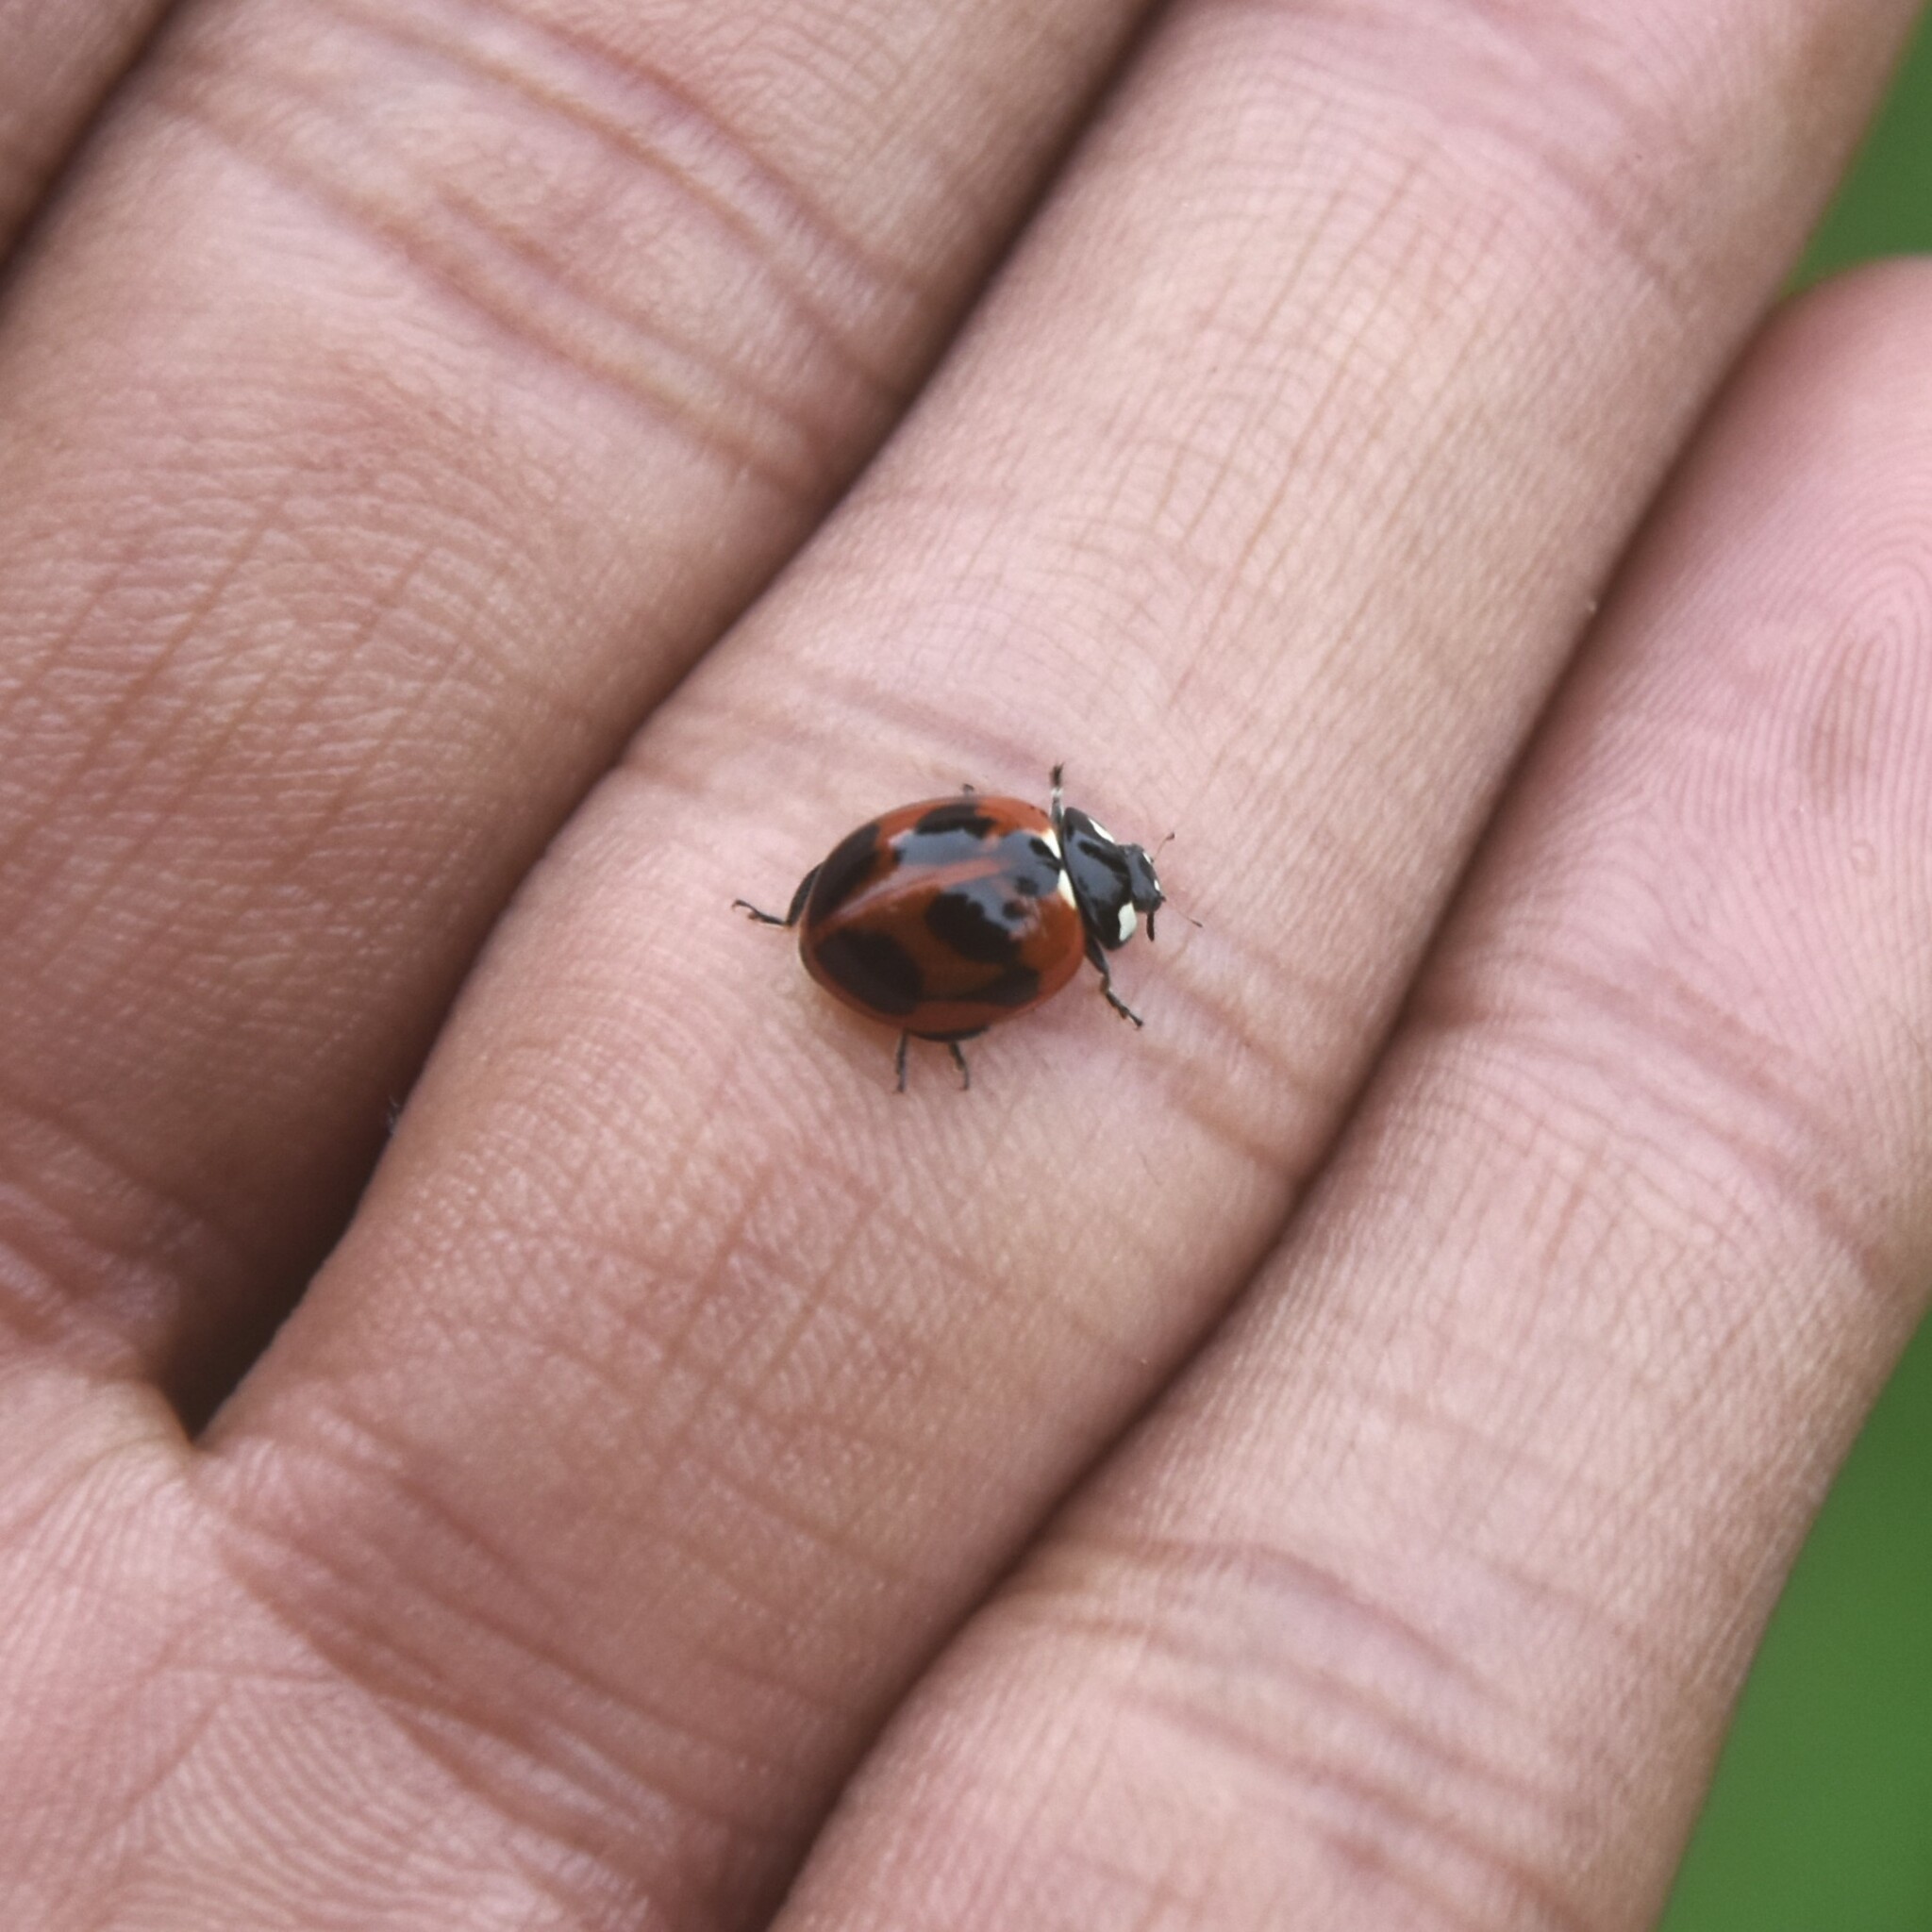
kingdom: Animalia
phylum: Arthropoda
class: Insecta
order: Coleoptera
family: Coccinellidae
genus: Coccinella
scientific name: Coccinella septempunctata
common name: Sevenspotted lady beetle
